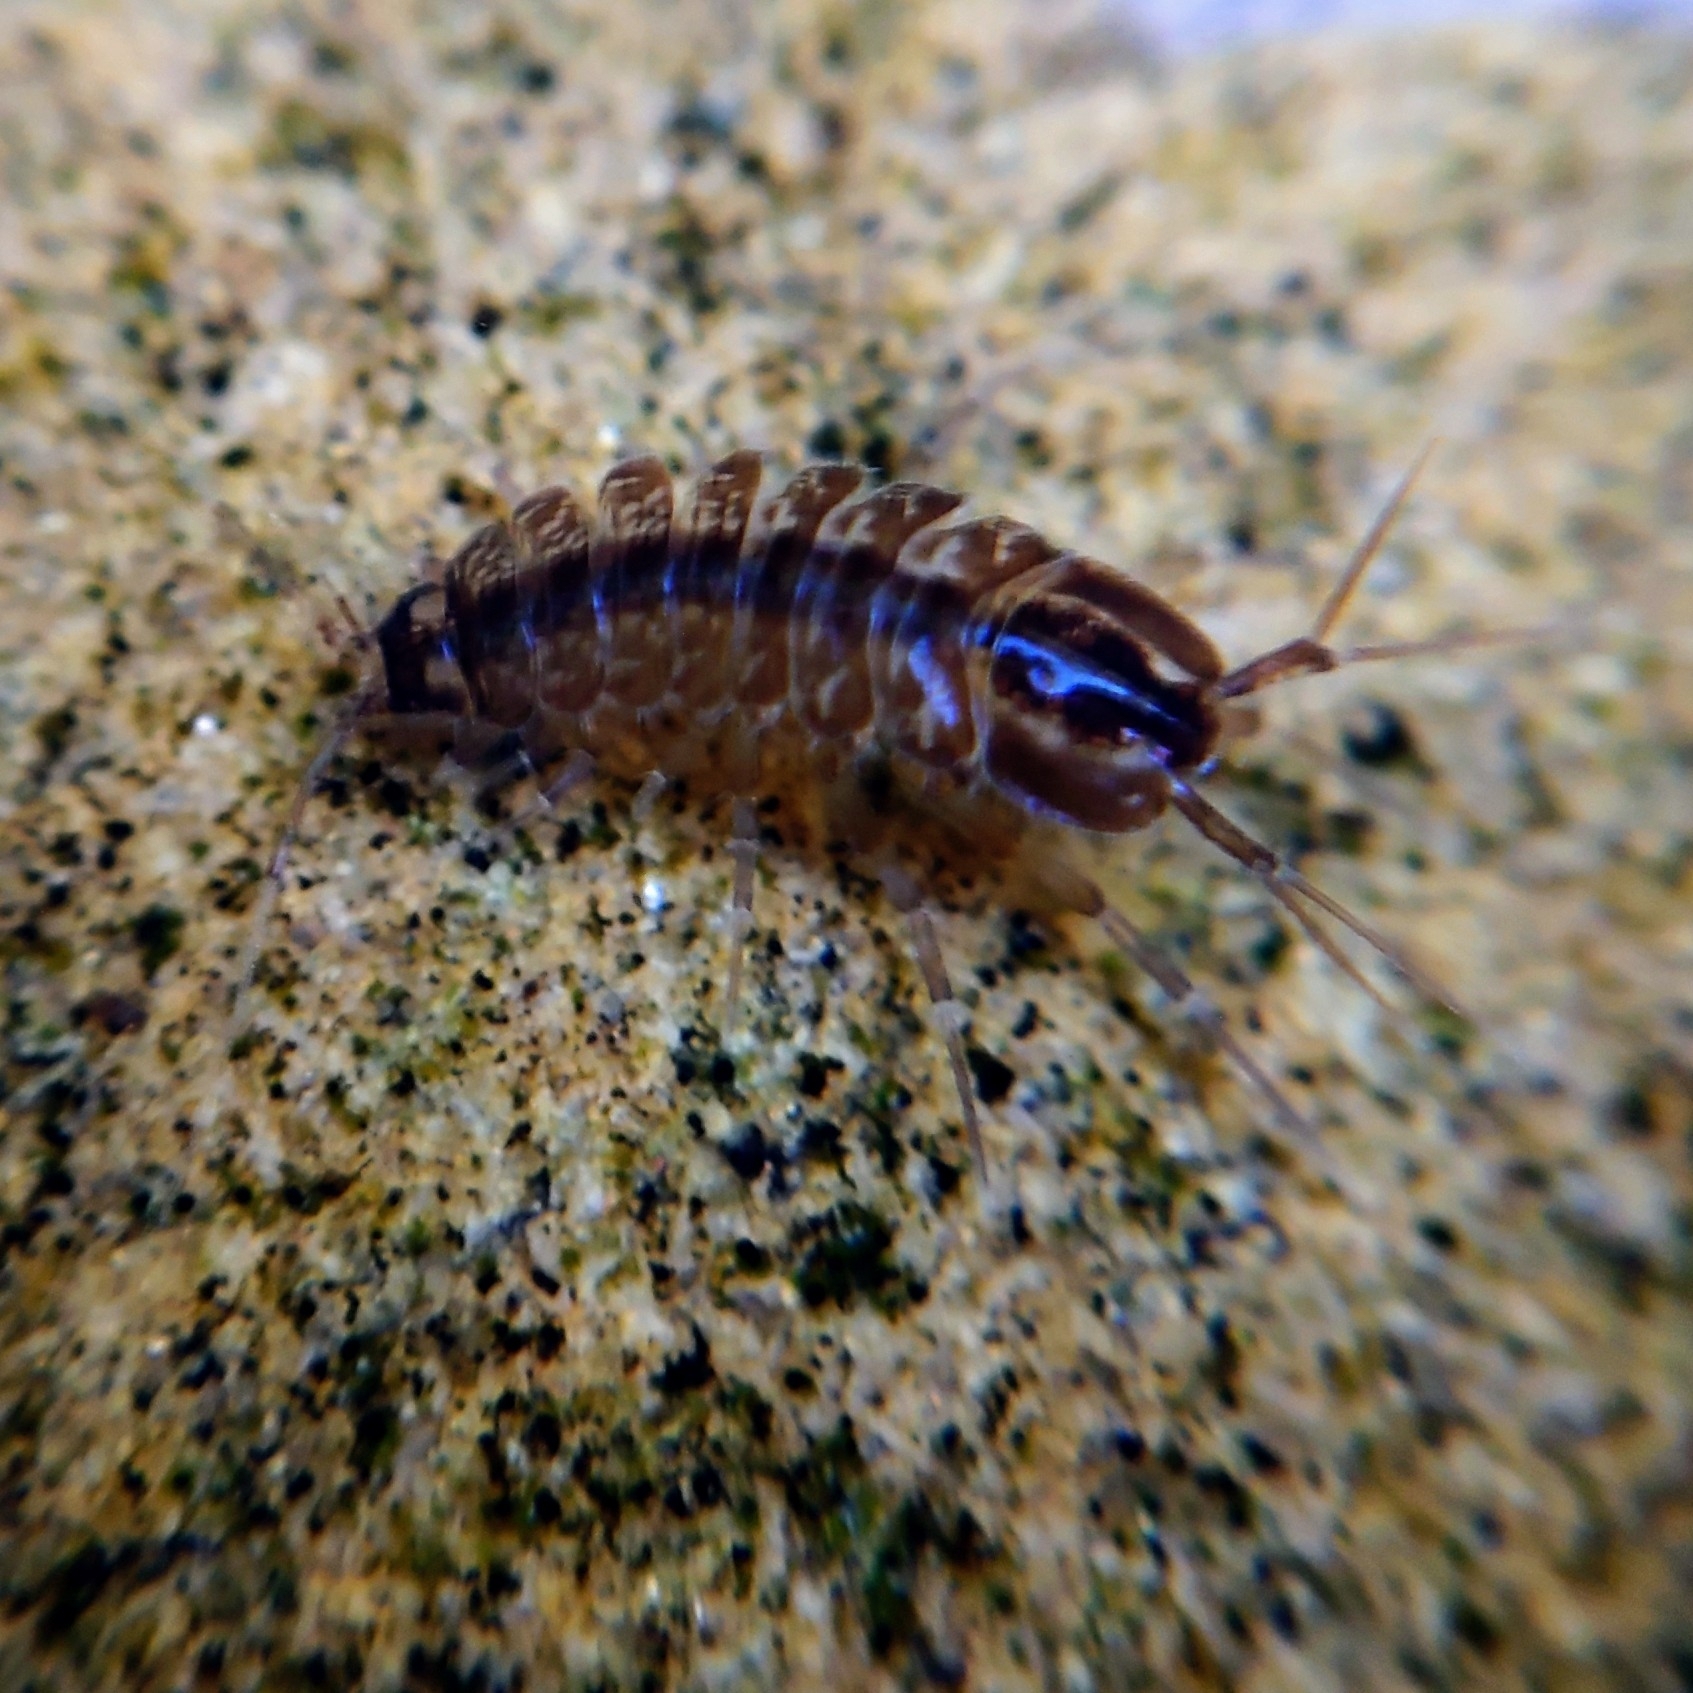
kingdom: Animalia
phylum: Arthropoda
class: Malacostraca
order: Isopoda
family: Asellidae
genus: Asellus
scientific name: Asellus aquaticus
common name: Water hog lice/slaters
